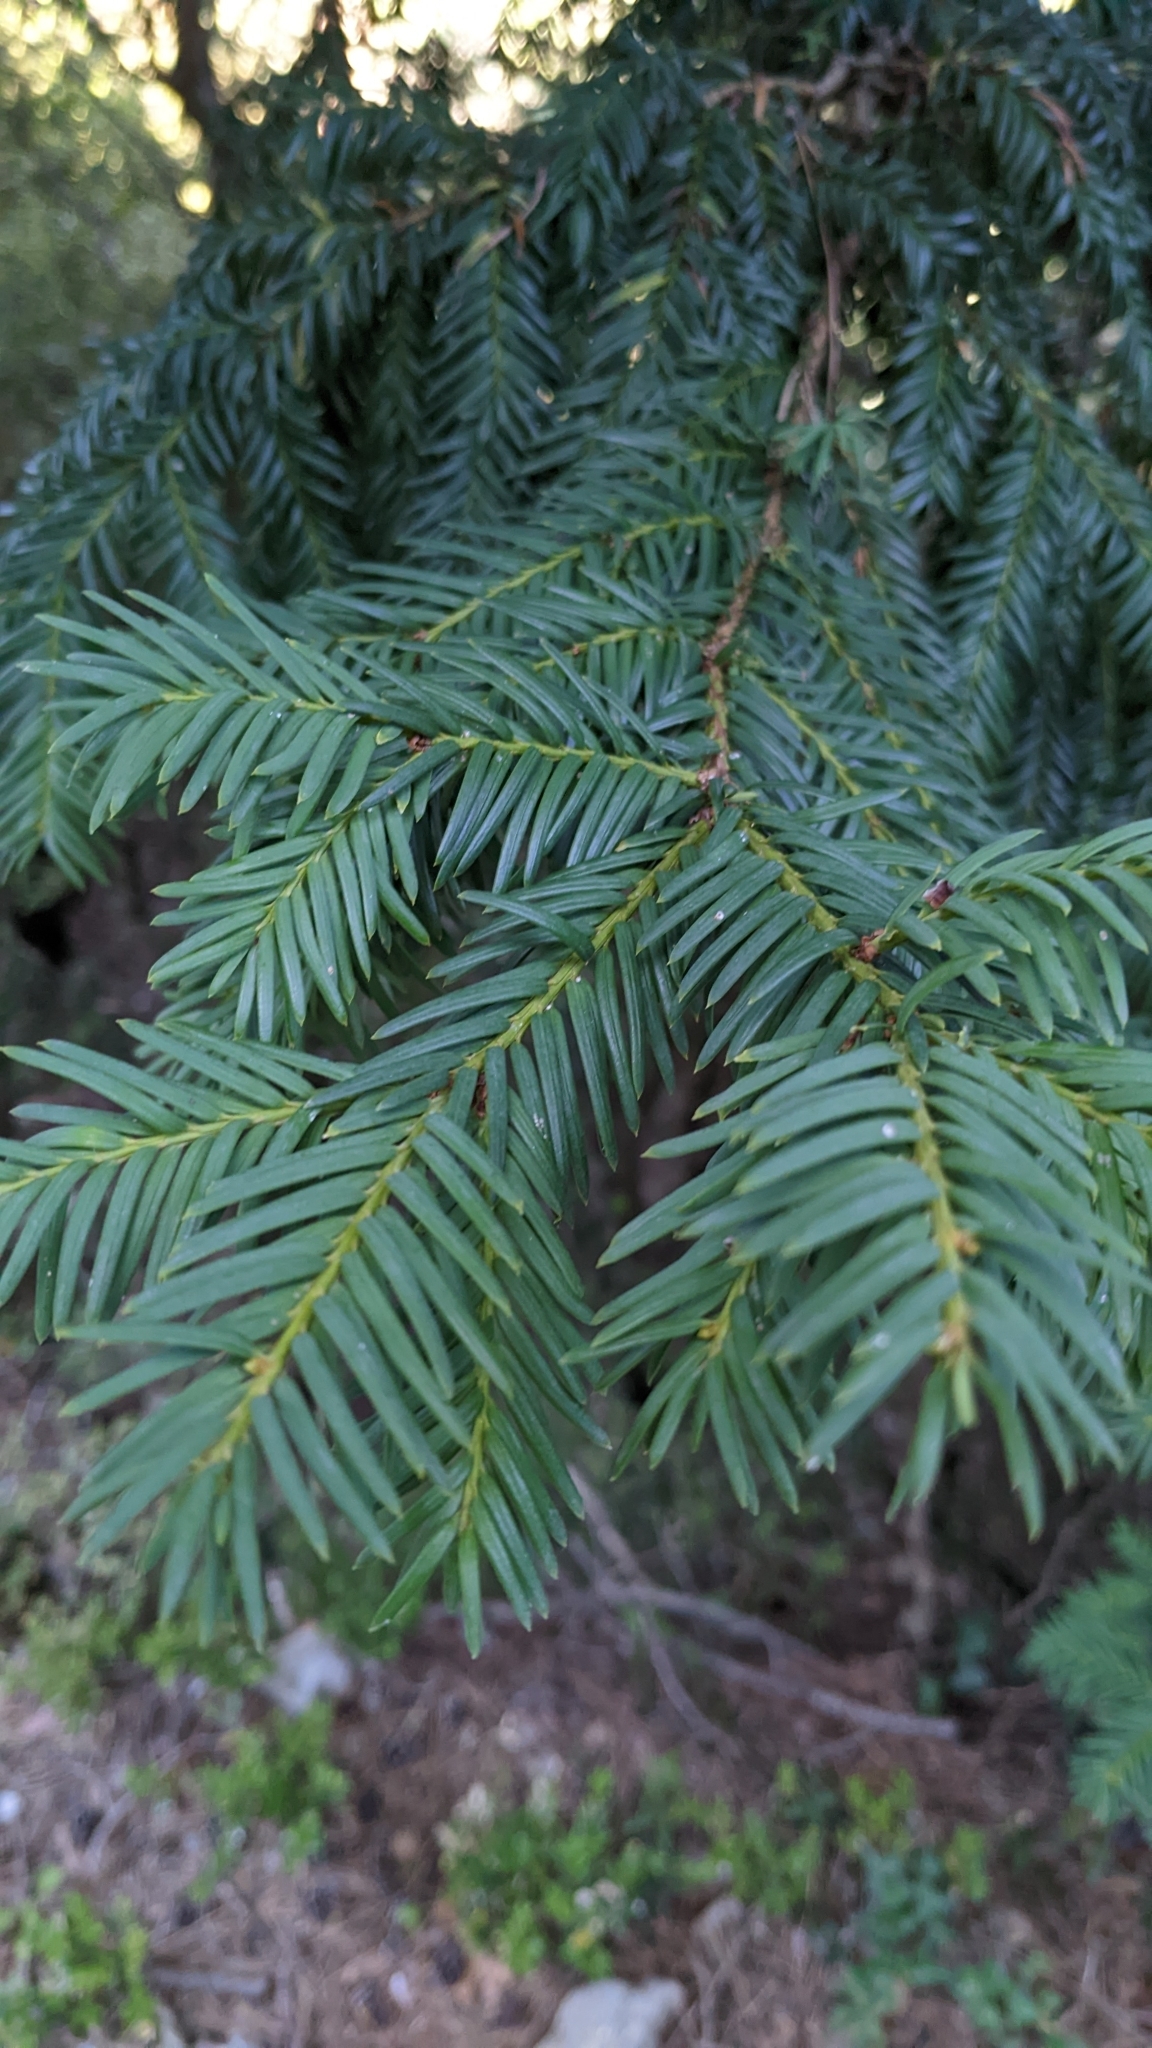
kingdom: Plantae
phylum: Tracheophyta
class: Pinopsida
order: Pinales
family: Taxaceae
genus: Taxus
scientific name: Taxus baccata
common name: Yew
